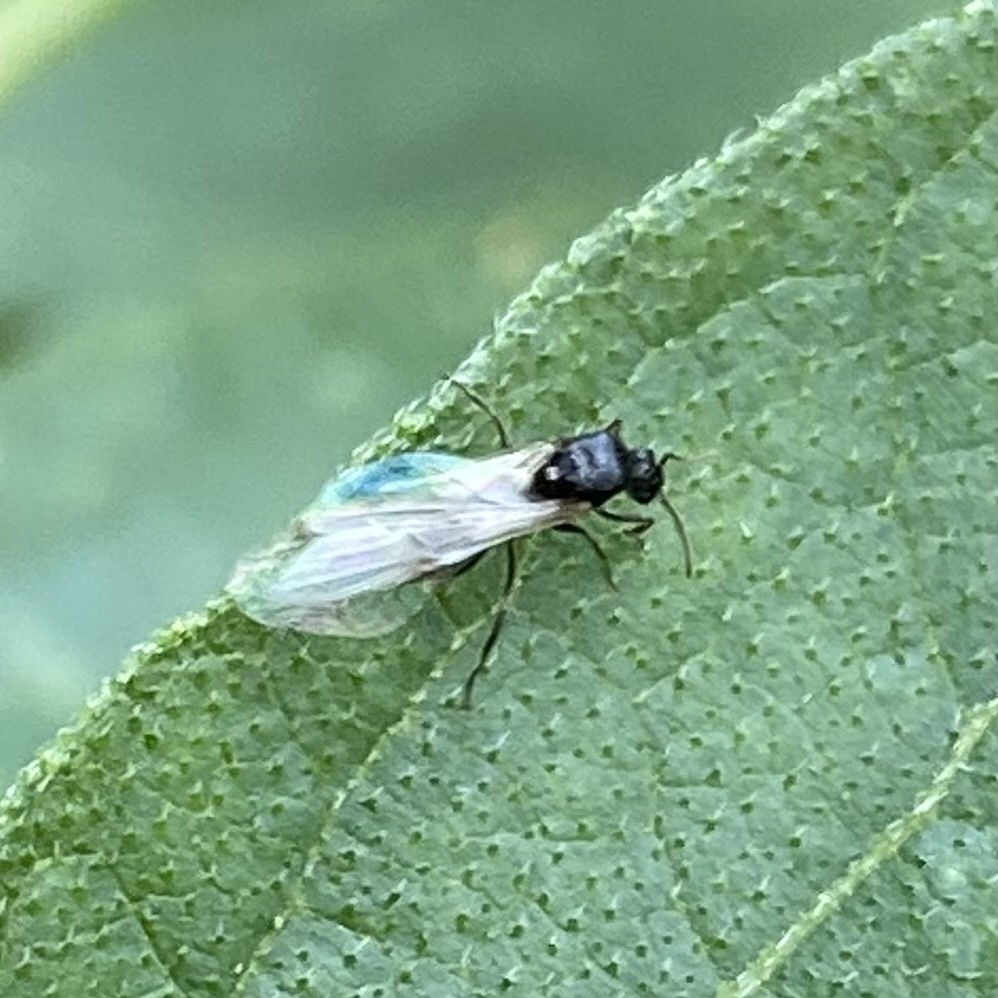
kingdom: Animalia
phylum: Arthropoda
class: Insecta
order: Hymenoptera
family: Formicidae
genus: Crematogaster
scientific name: Crematogaster
